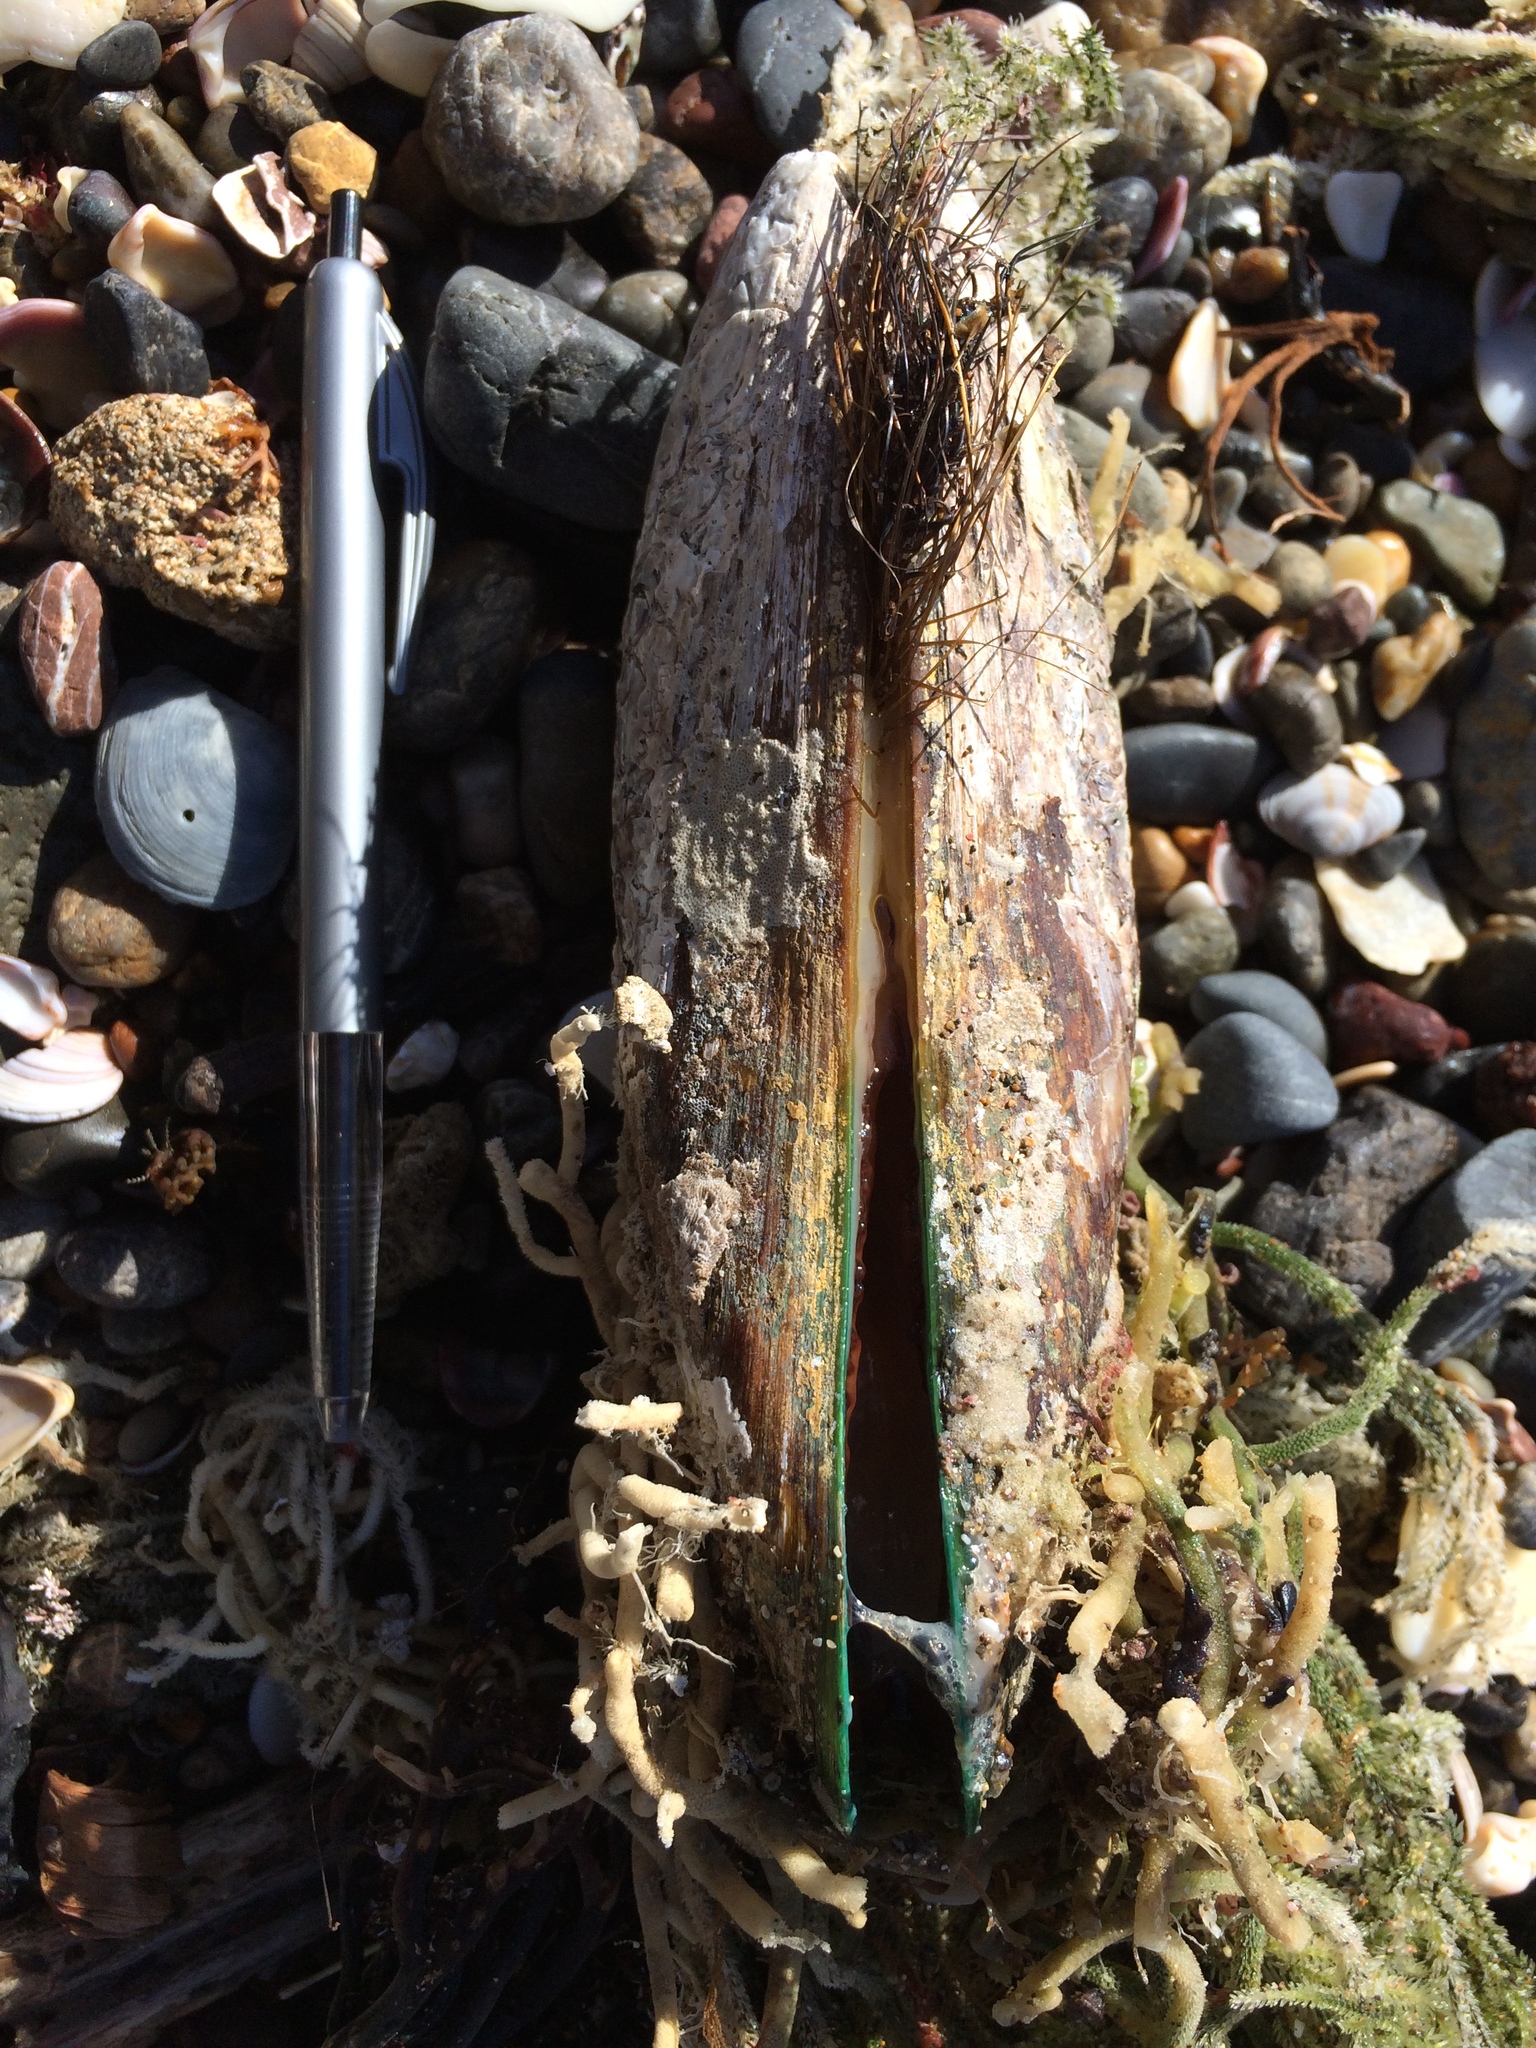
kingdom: Animalia
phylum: Mollusca
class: Bivalvia
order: Mytilida
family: Mytilidae
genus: Perna
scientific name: Perna canaliculus
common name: New zealand greenshelltm
